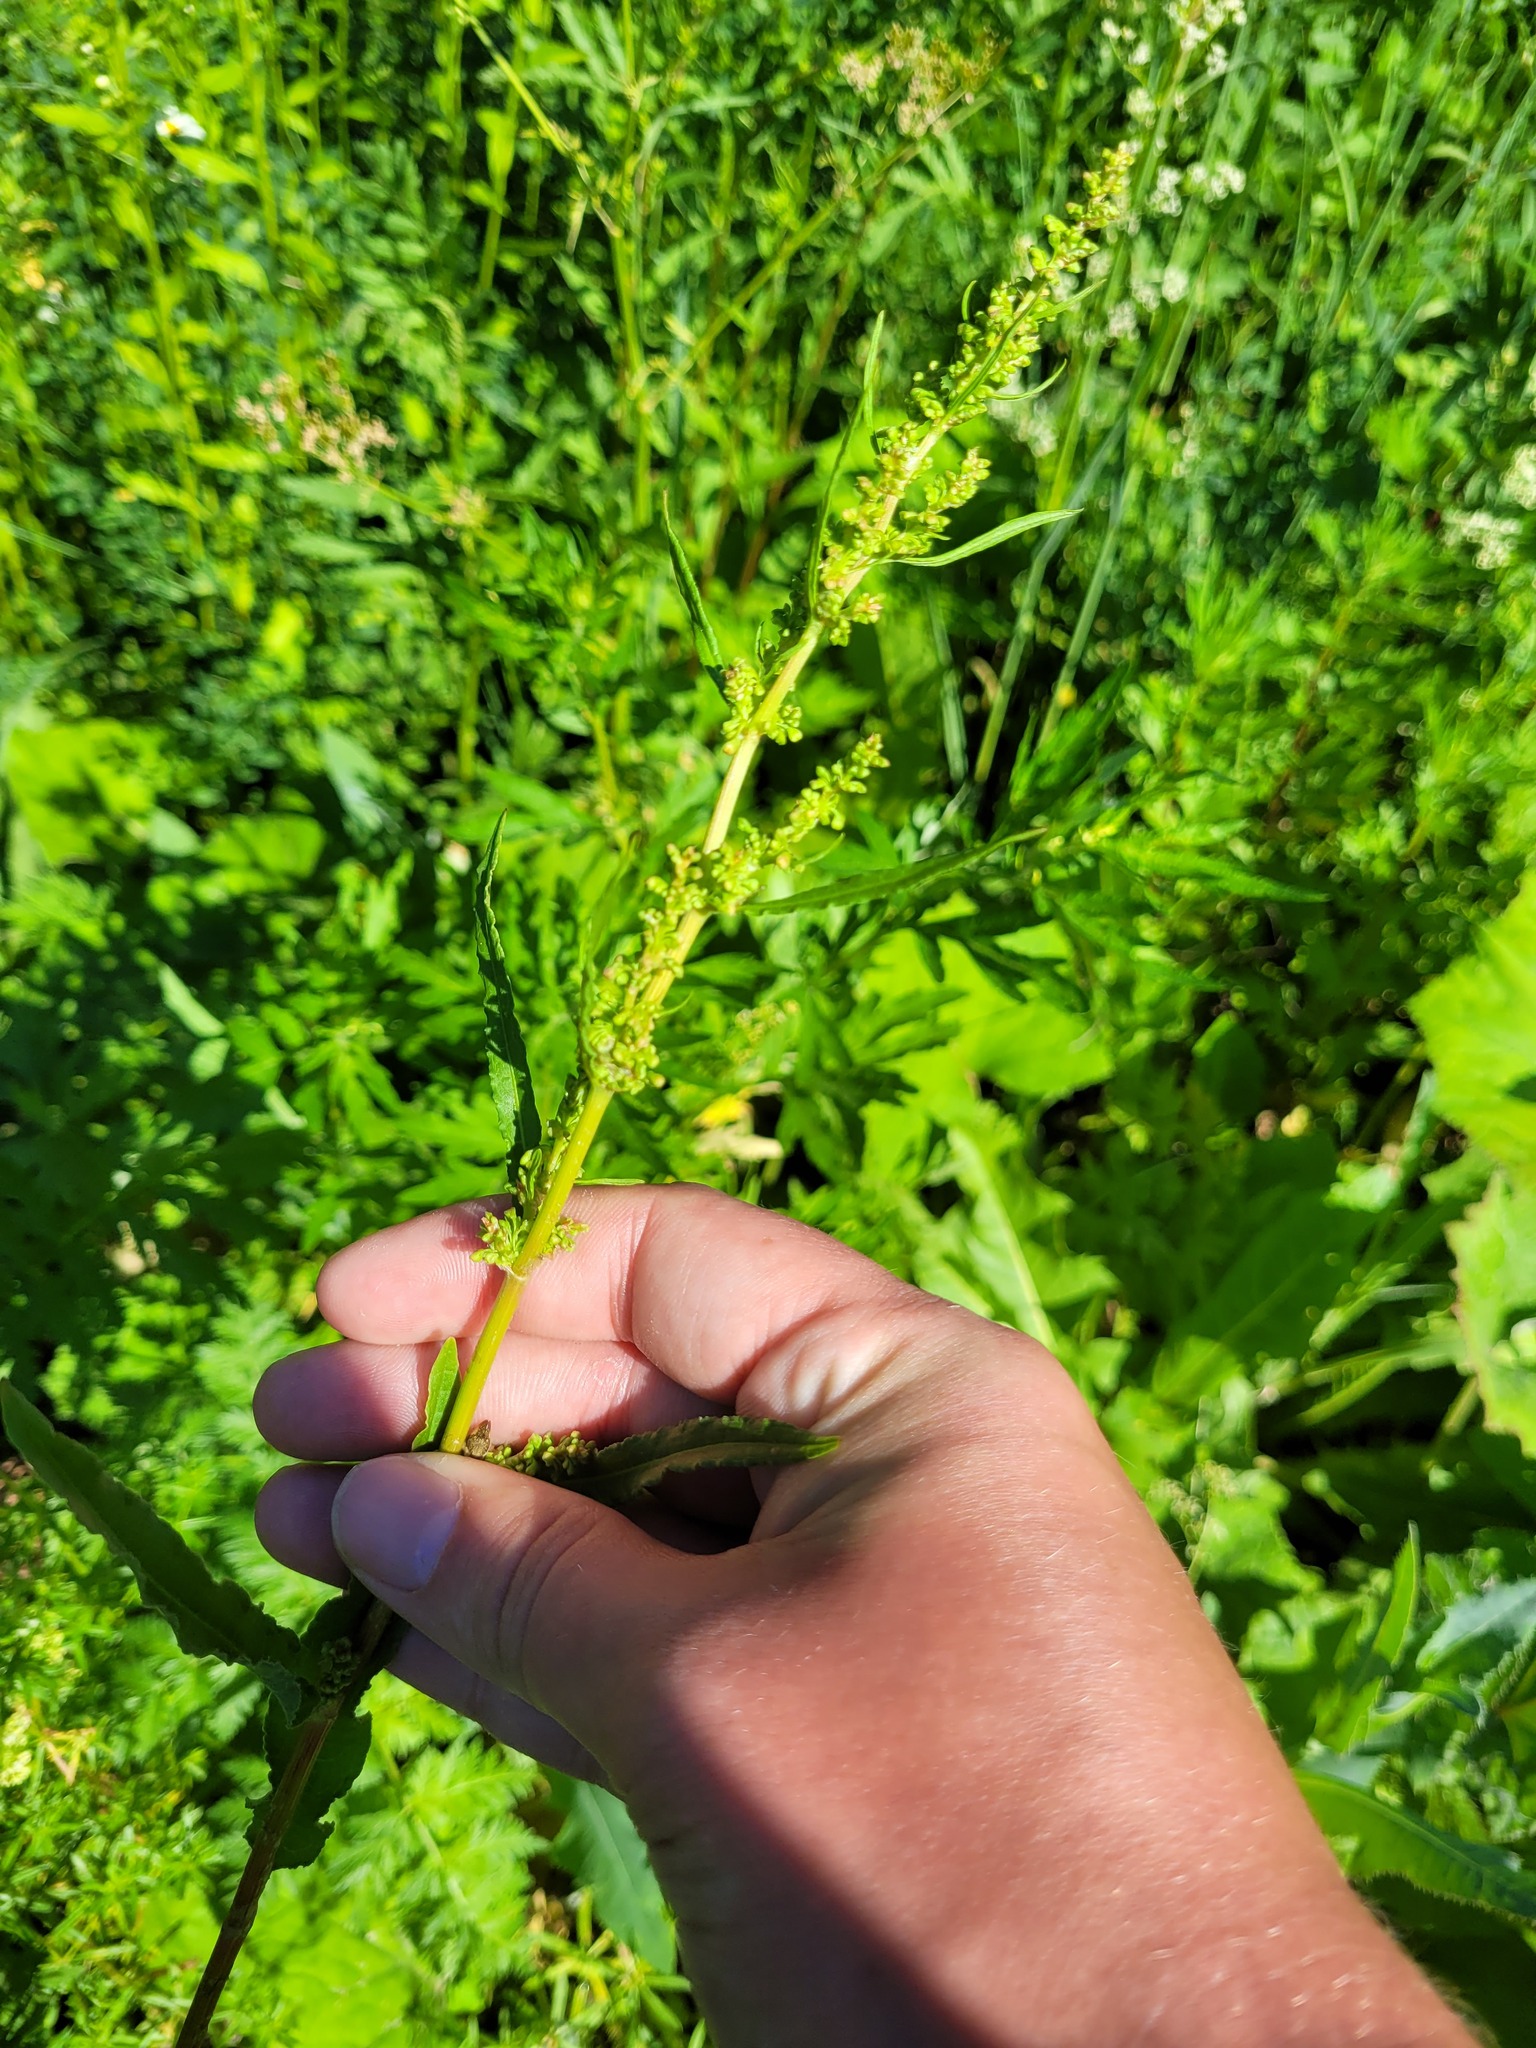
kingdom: Plantae
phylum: Tracheophyta
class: Magnoliopsida
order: Caryophyllales
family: Polygonaceae
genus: Rumex
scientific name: Rumex crispus
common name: Curled dock
